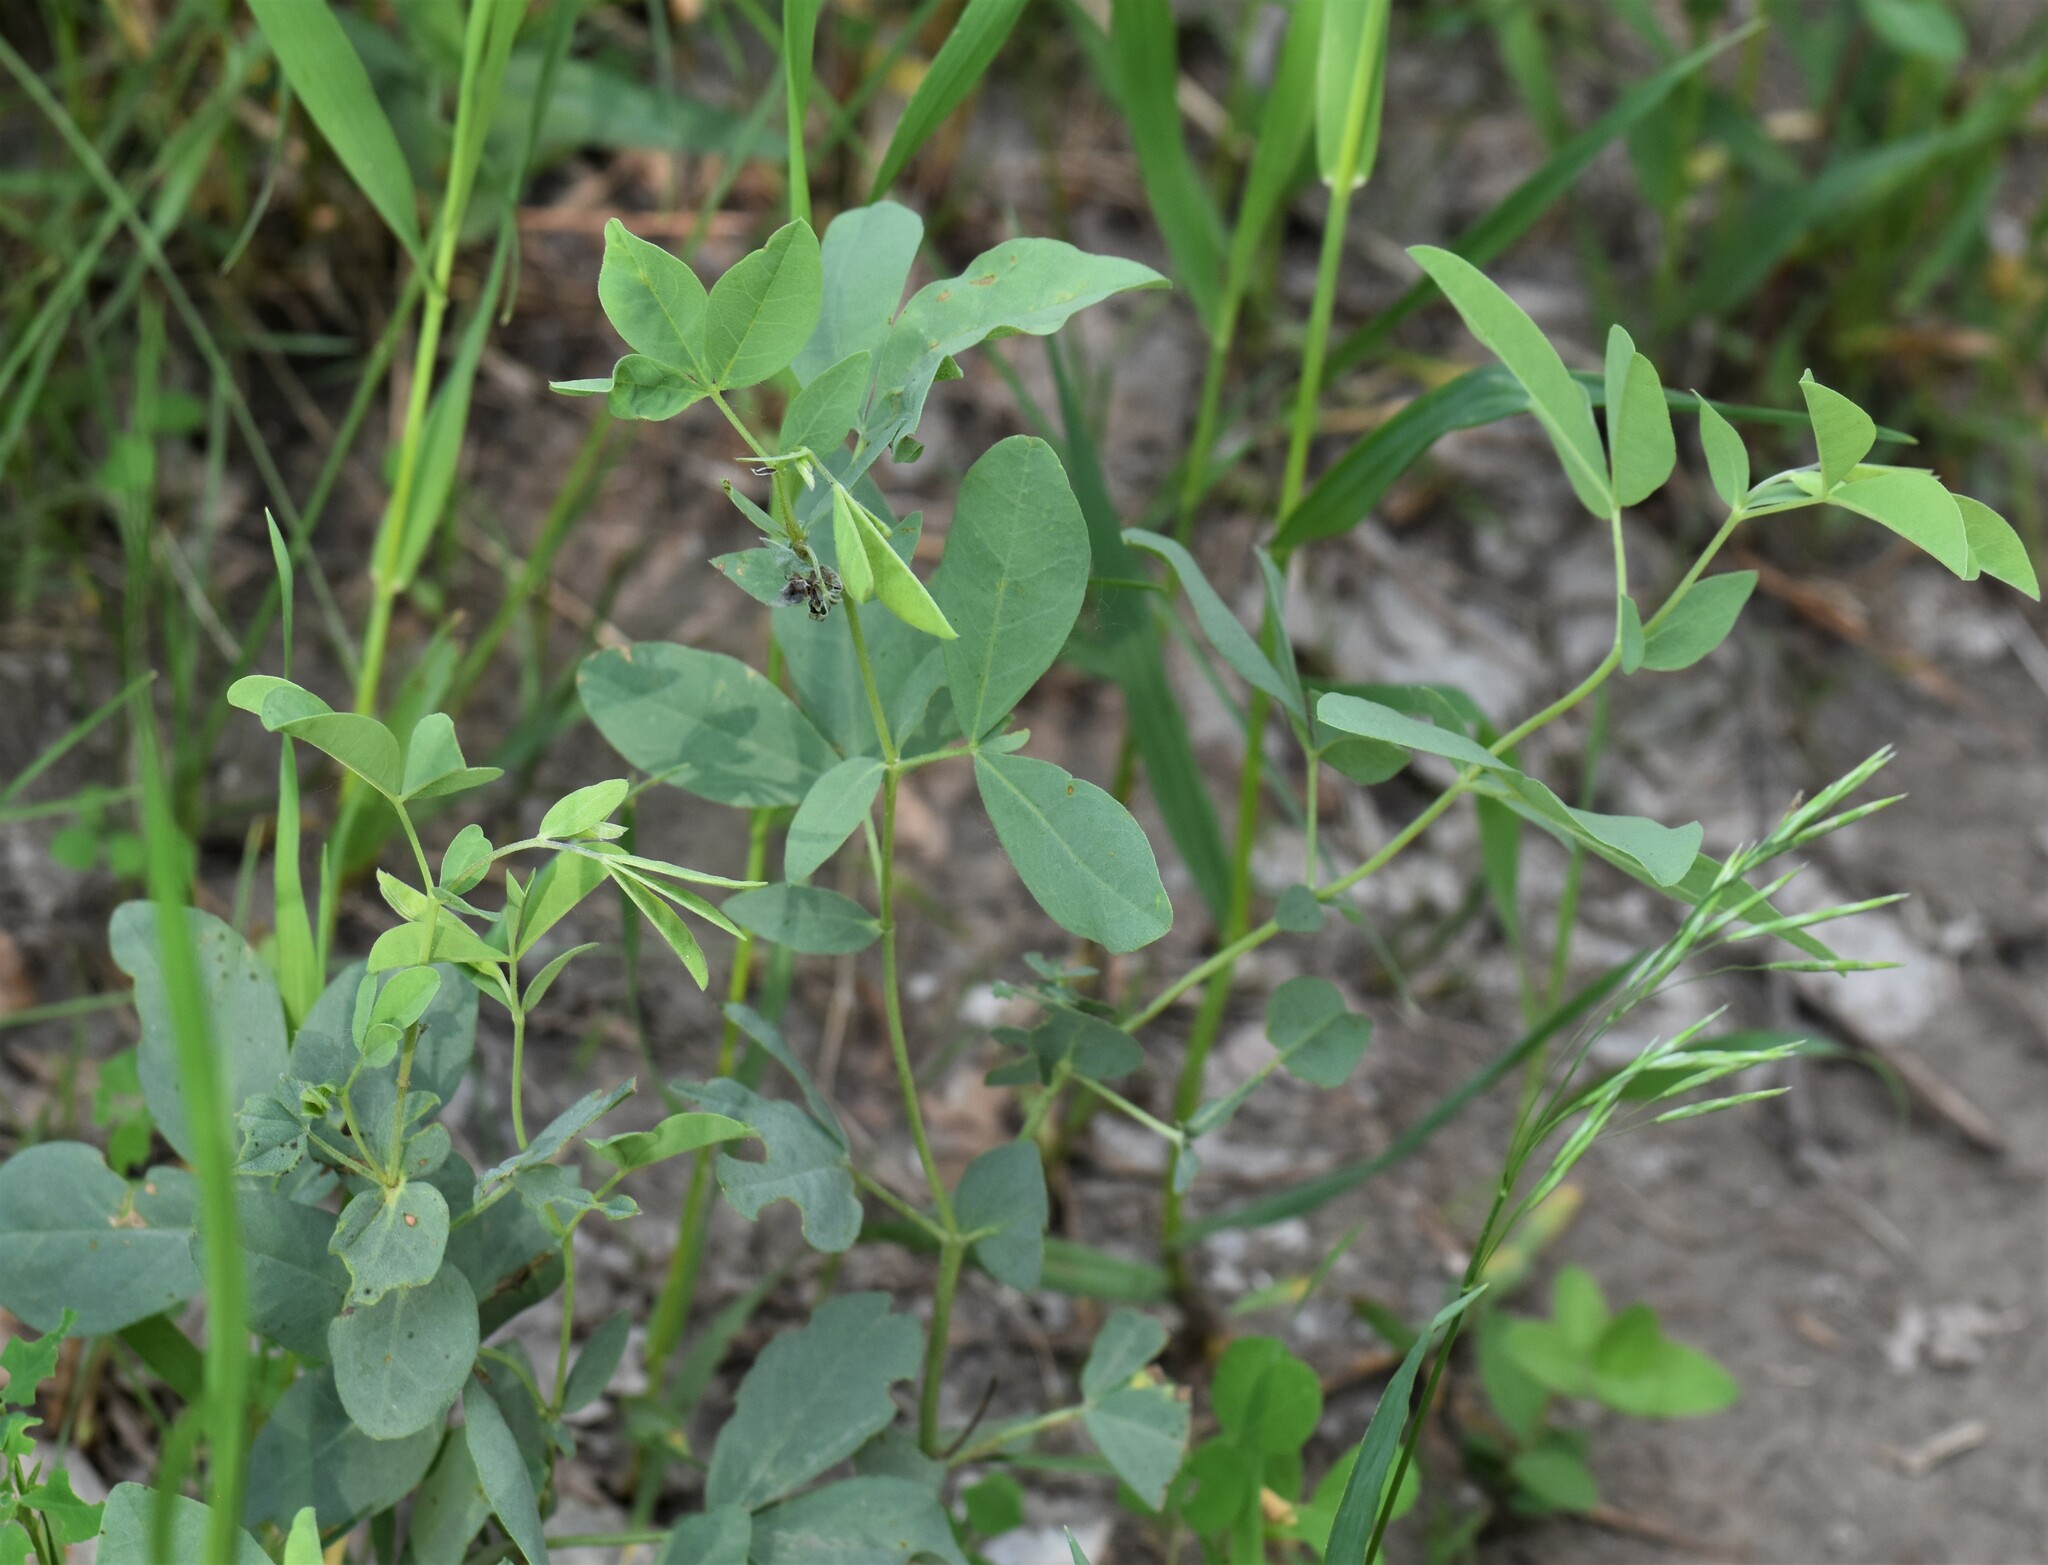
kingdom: Plantae
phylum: Tracheophyta
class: Magnoliopsida
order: Fabales
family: Fabaceae
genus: Thermopsis
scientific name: Thermopsis rhombifolia
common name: Circle-pod-pea
